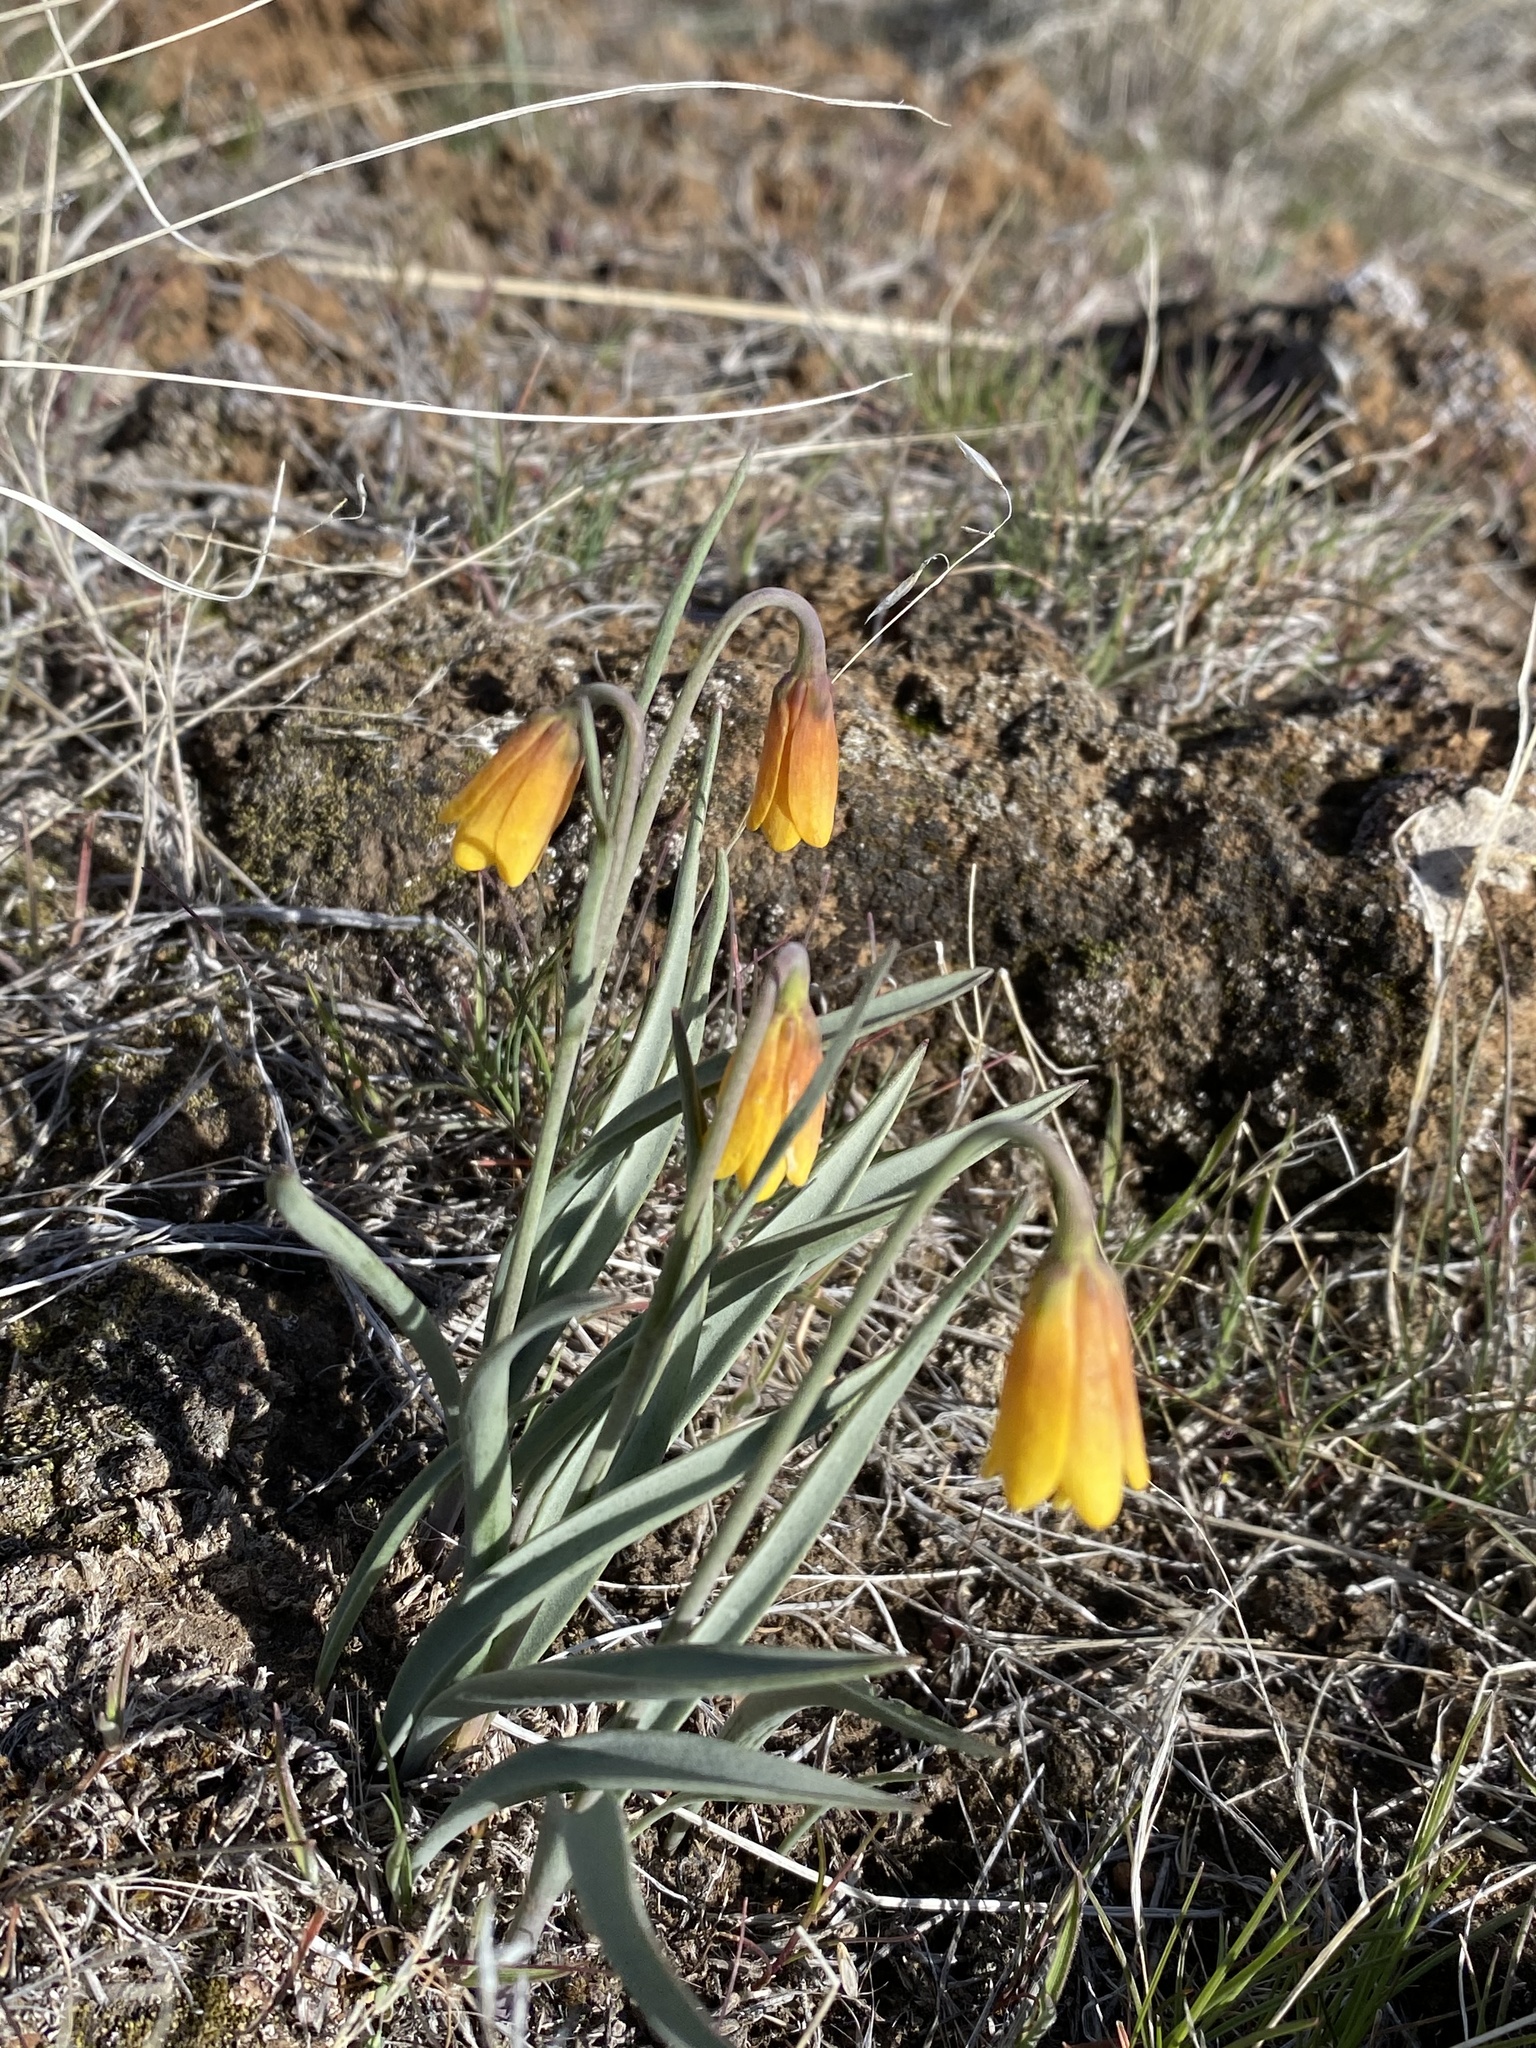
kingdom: Plantae
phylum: Tracheophyta
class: Liliopsida
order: Liliales
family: Liliaceae
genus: Fritillaria
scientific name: Fritillaria pudica
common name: Yellow fritillary
